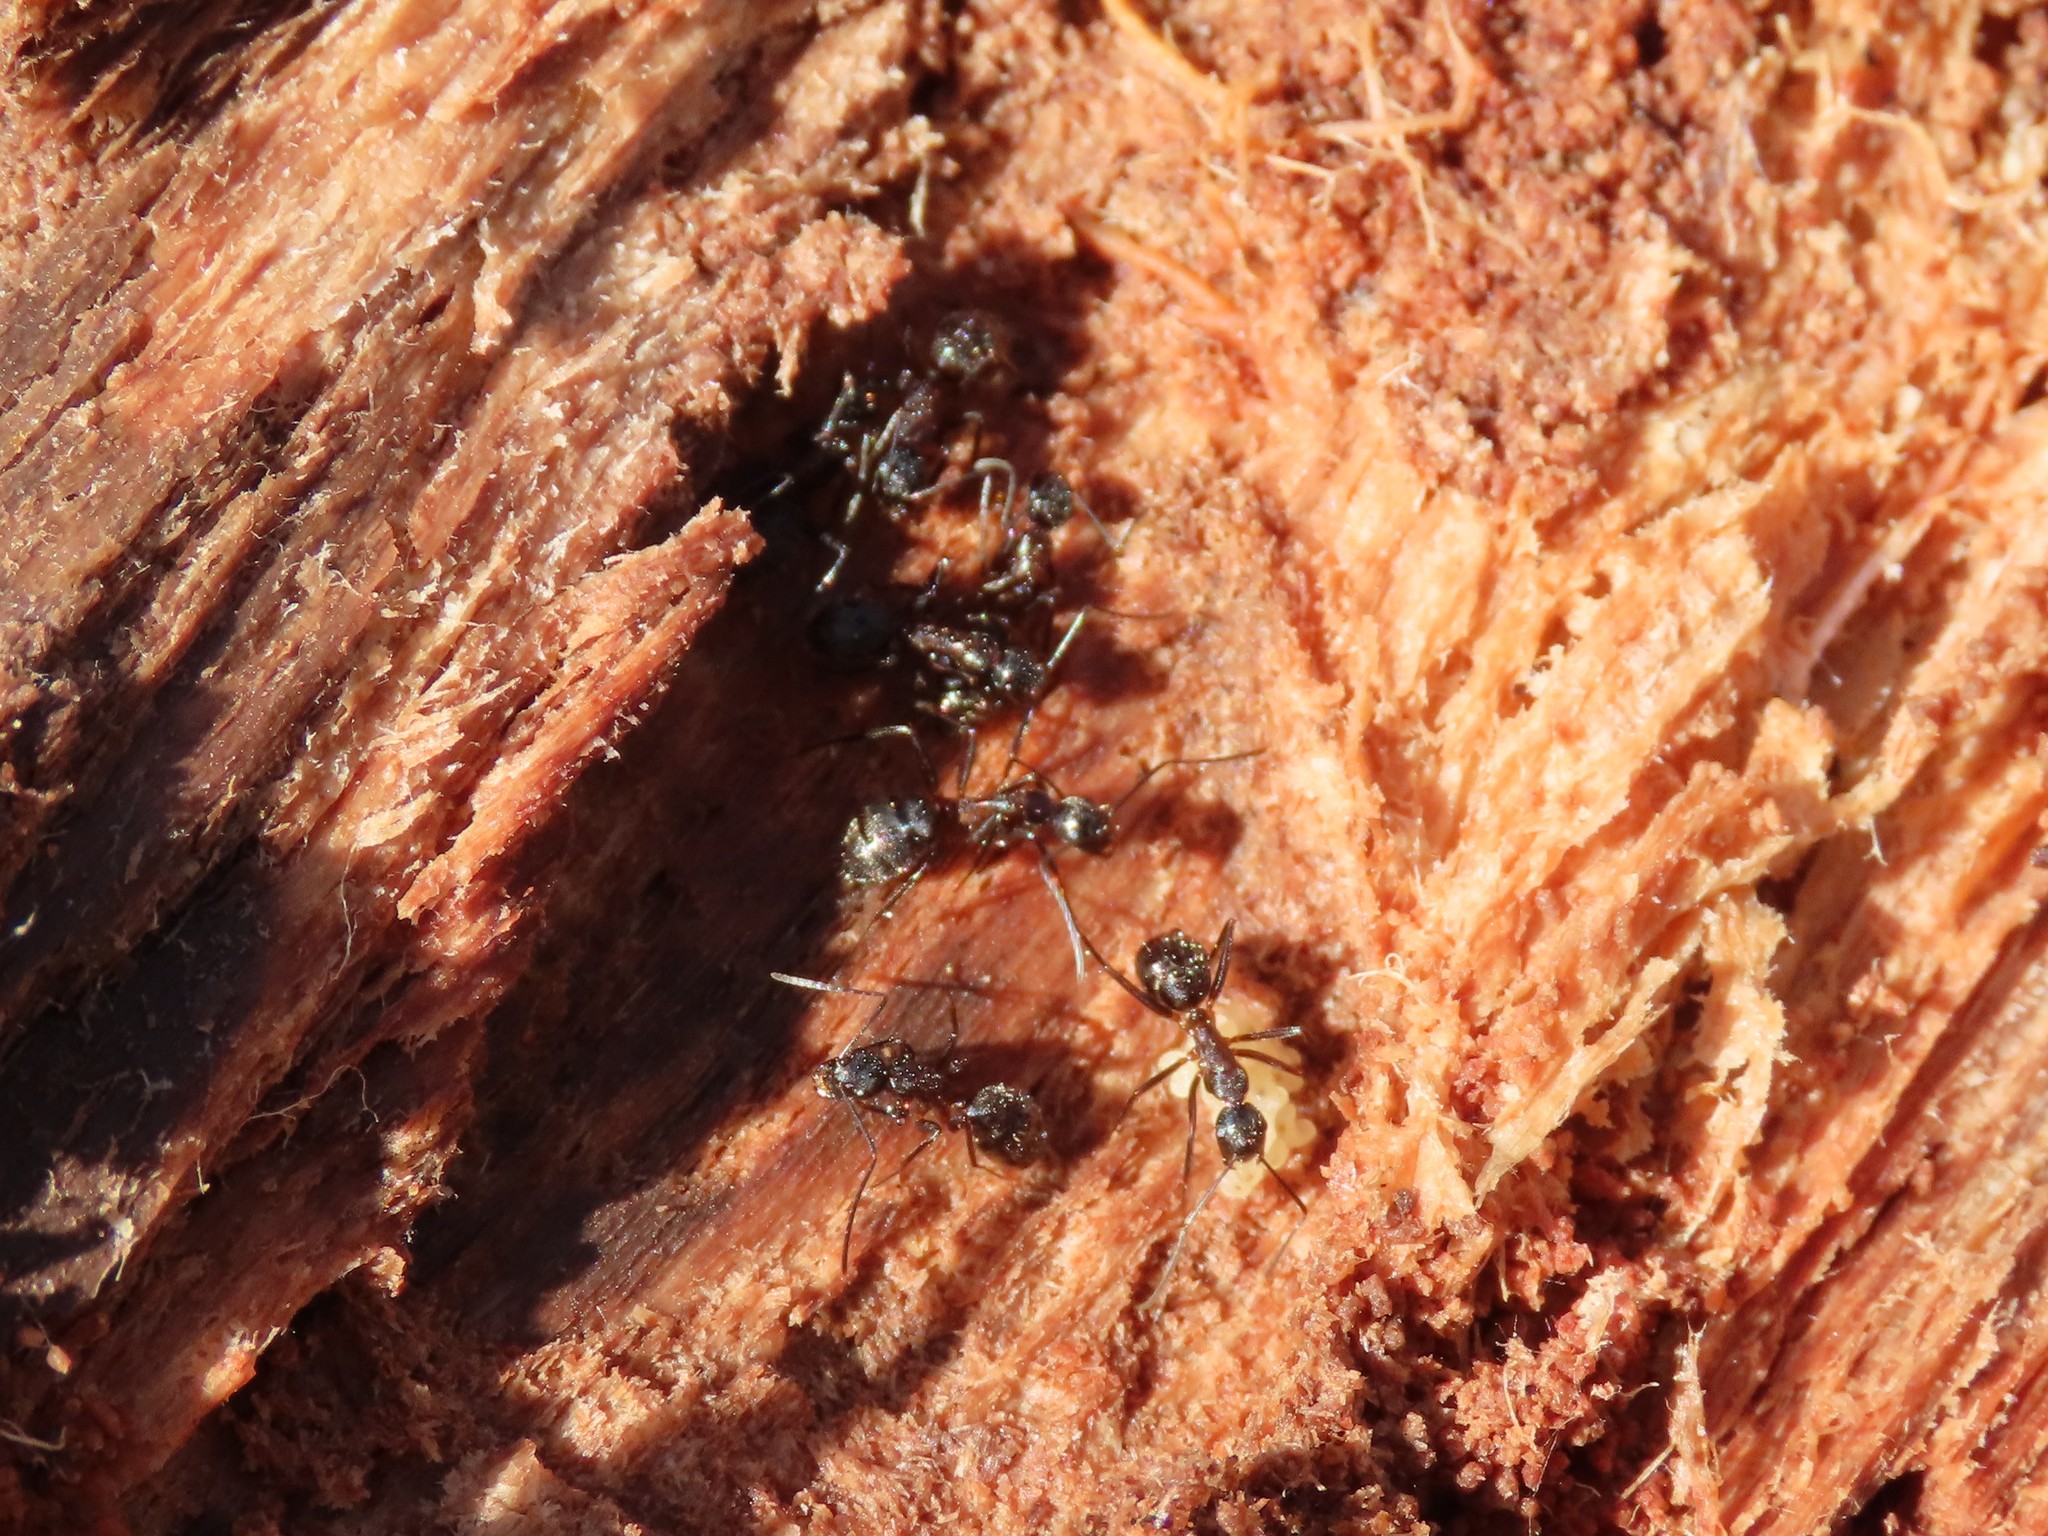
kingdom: Animalia
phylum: Arthropoda
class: Insecta
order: Hymenoptera
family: Formicidae
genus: Camponotus
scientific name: Camponotus chromaiodes
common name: Red carpenter ant
